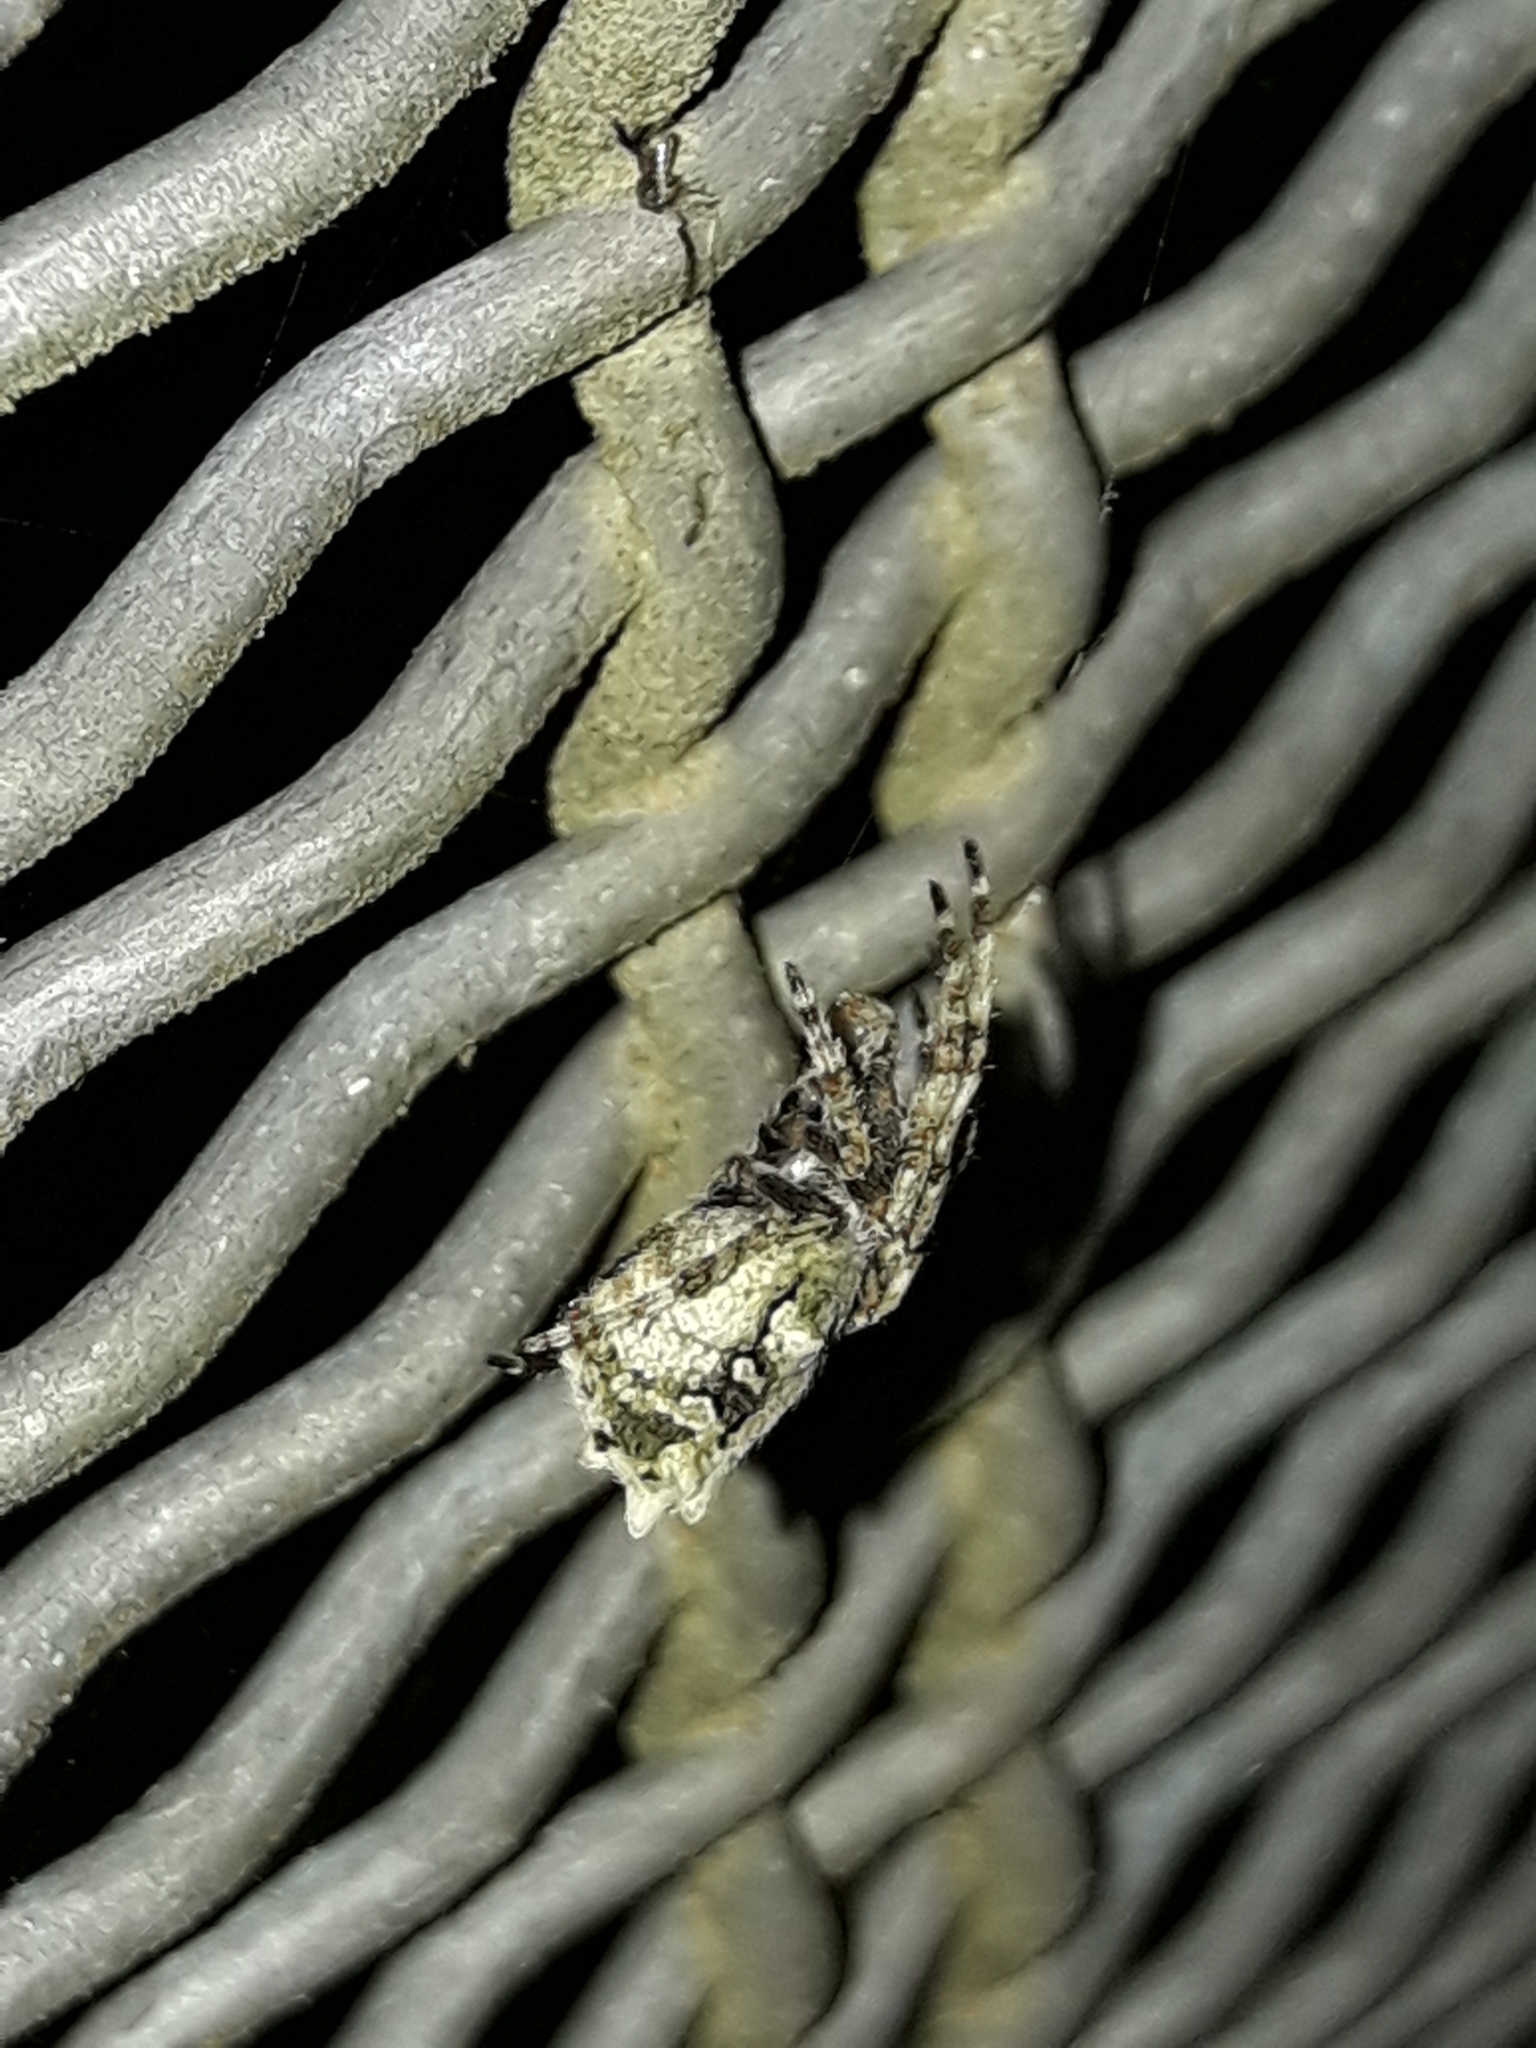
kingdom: Animalia
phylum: Arthropoda
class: Arachnida
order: Araneae
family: Araneidae
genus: Eriophora
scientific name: Eriophora pustulosa
